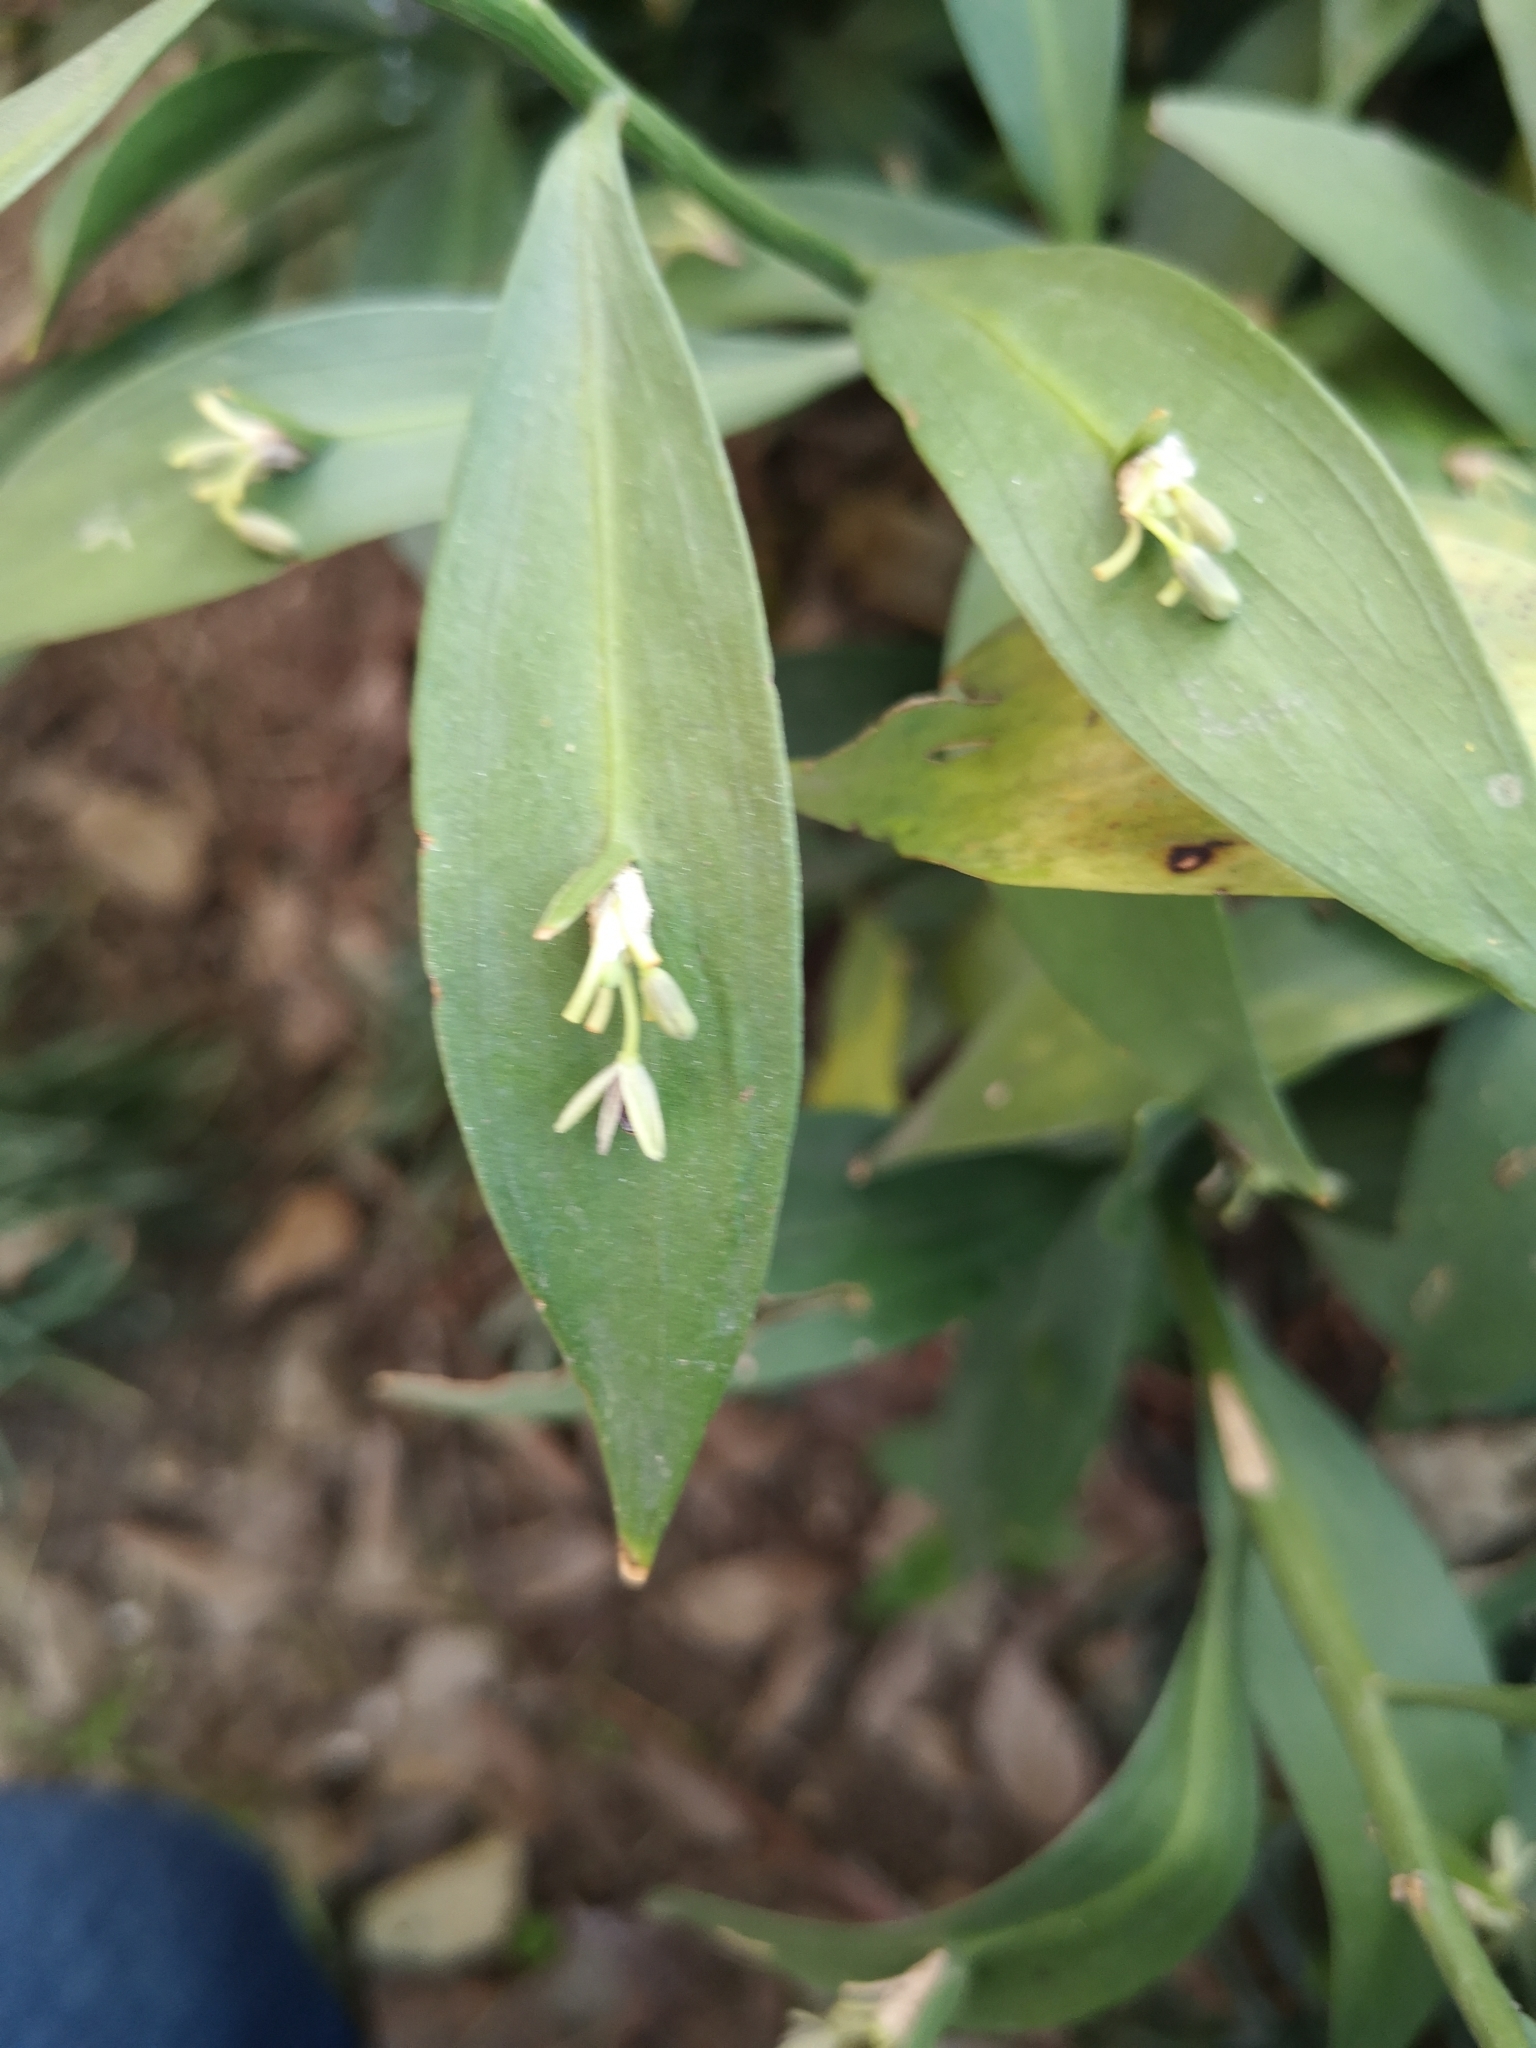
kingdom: Plantae
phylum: Tracheophyta
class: Liliopsida
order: Asparagales
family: Asparagaceae
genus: Ruscus
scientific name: Ruscus aculeatus
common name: Butcher's-broom
